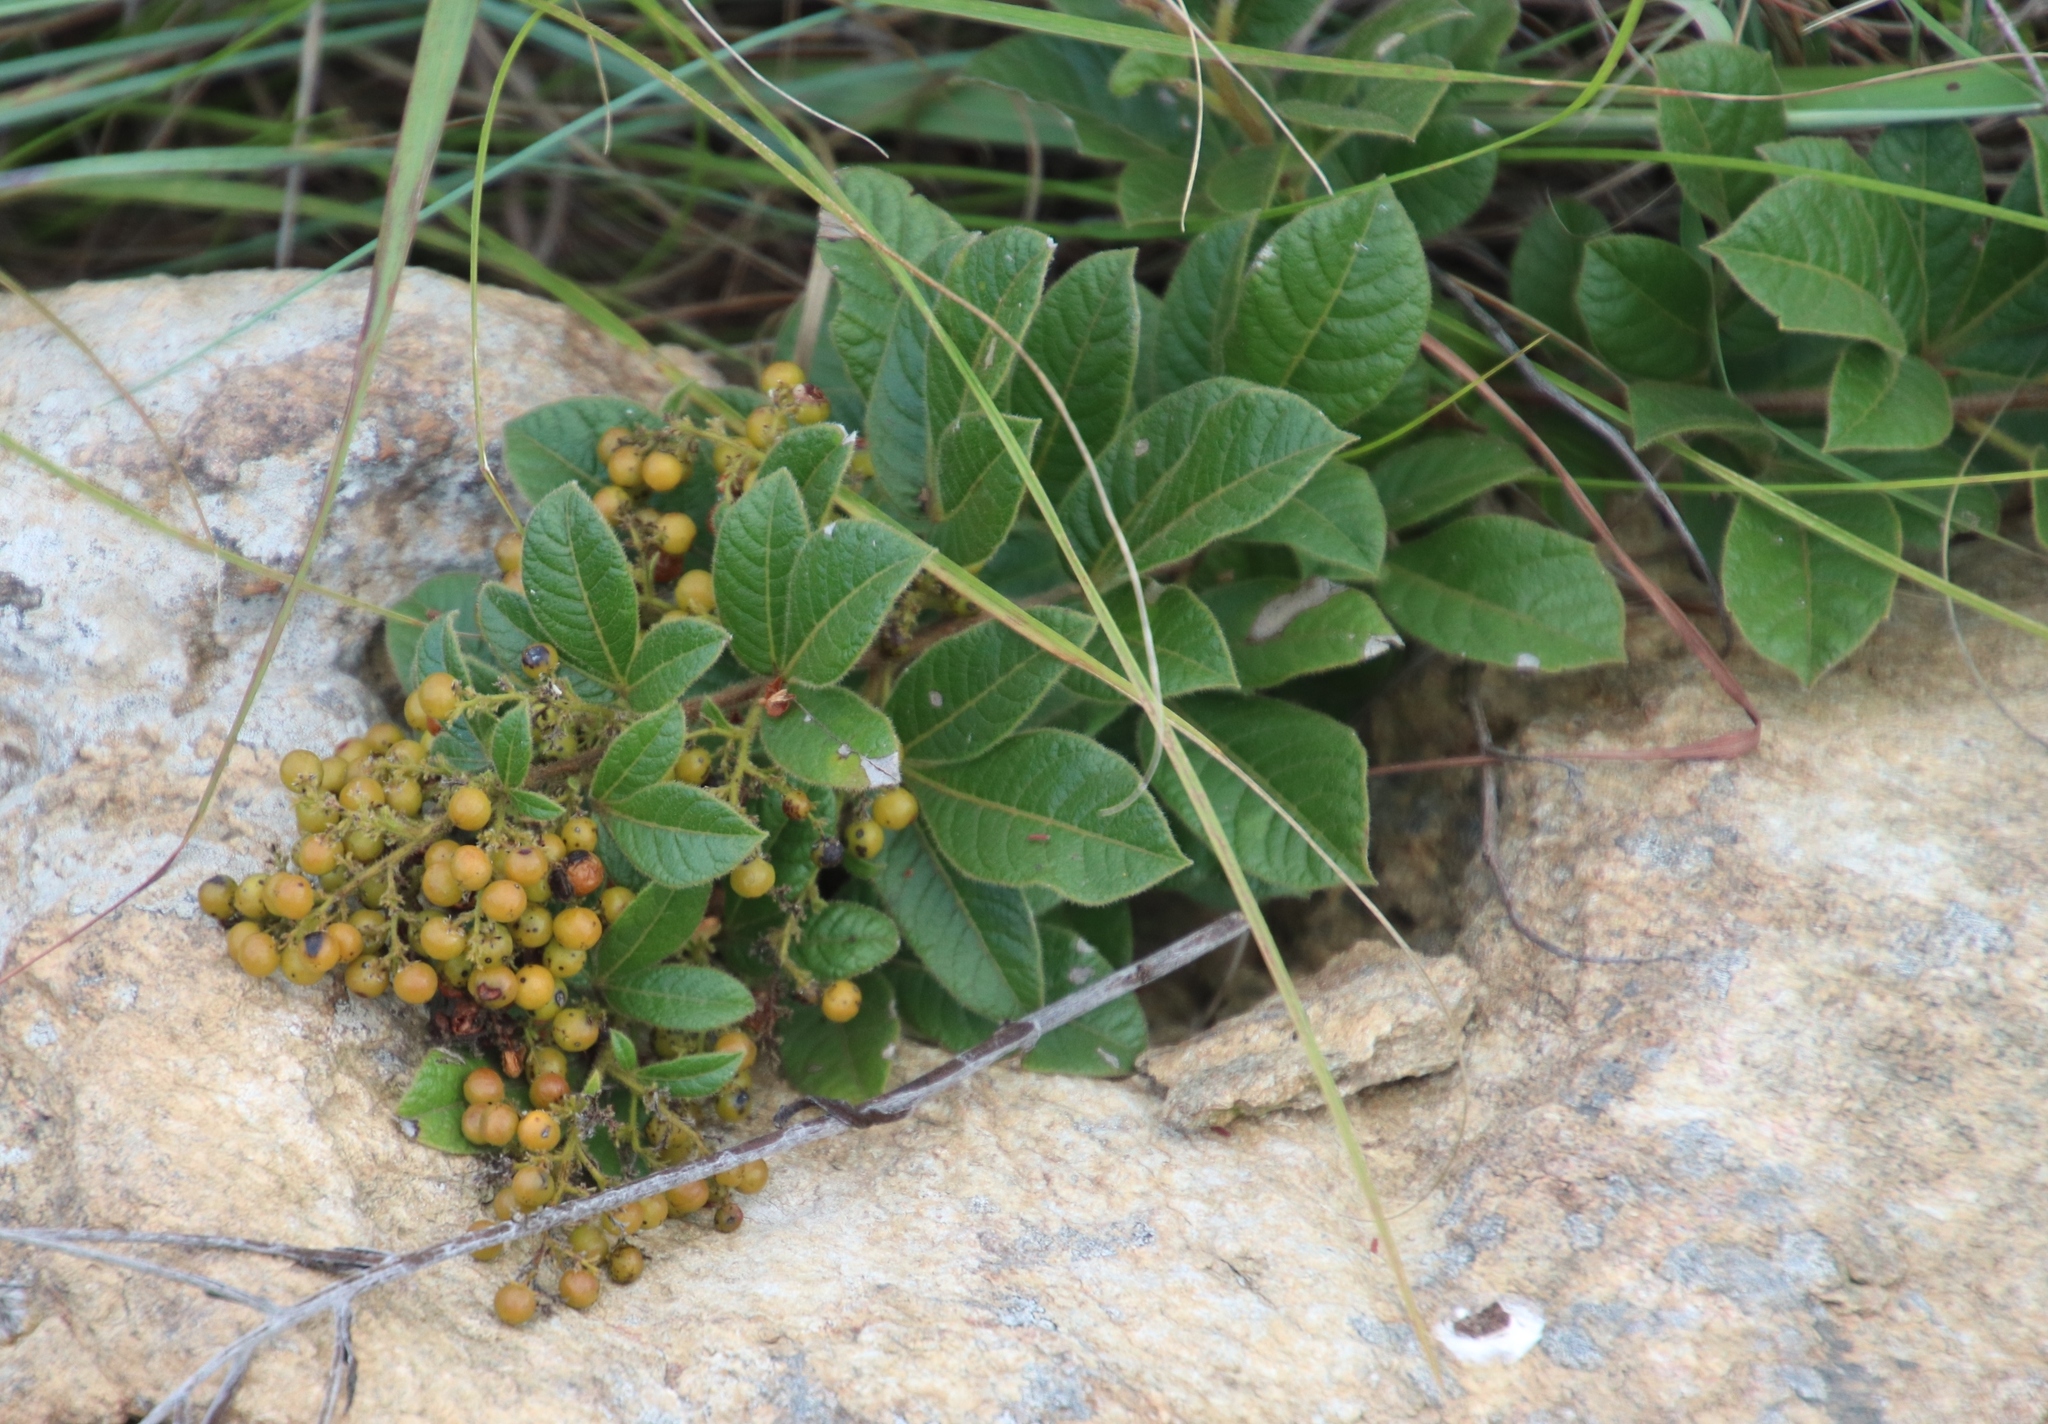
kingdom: Plantae
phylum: Tracheophyta
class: Magnoliopsida
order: Sapindales
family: Anacardiaceae
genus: Searsia
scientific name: Searsia tumulicola
